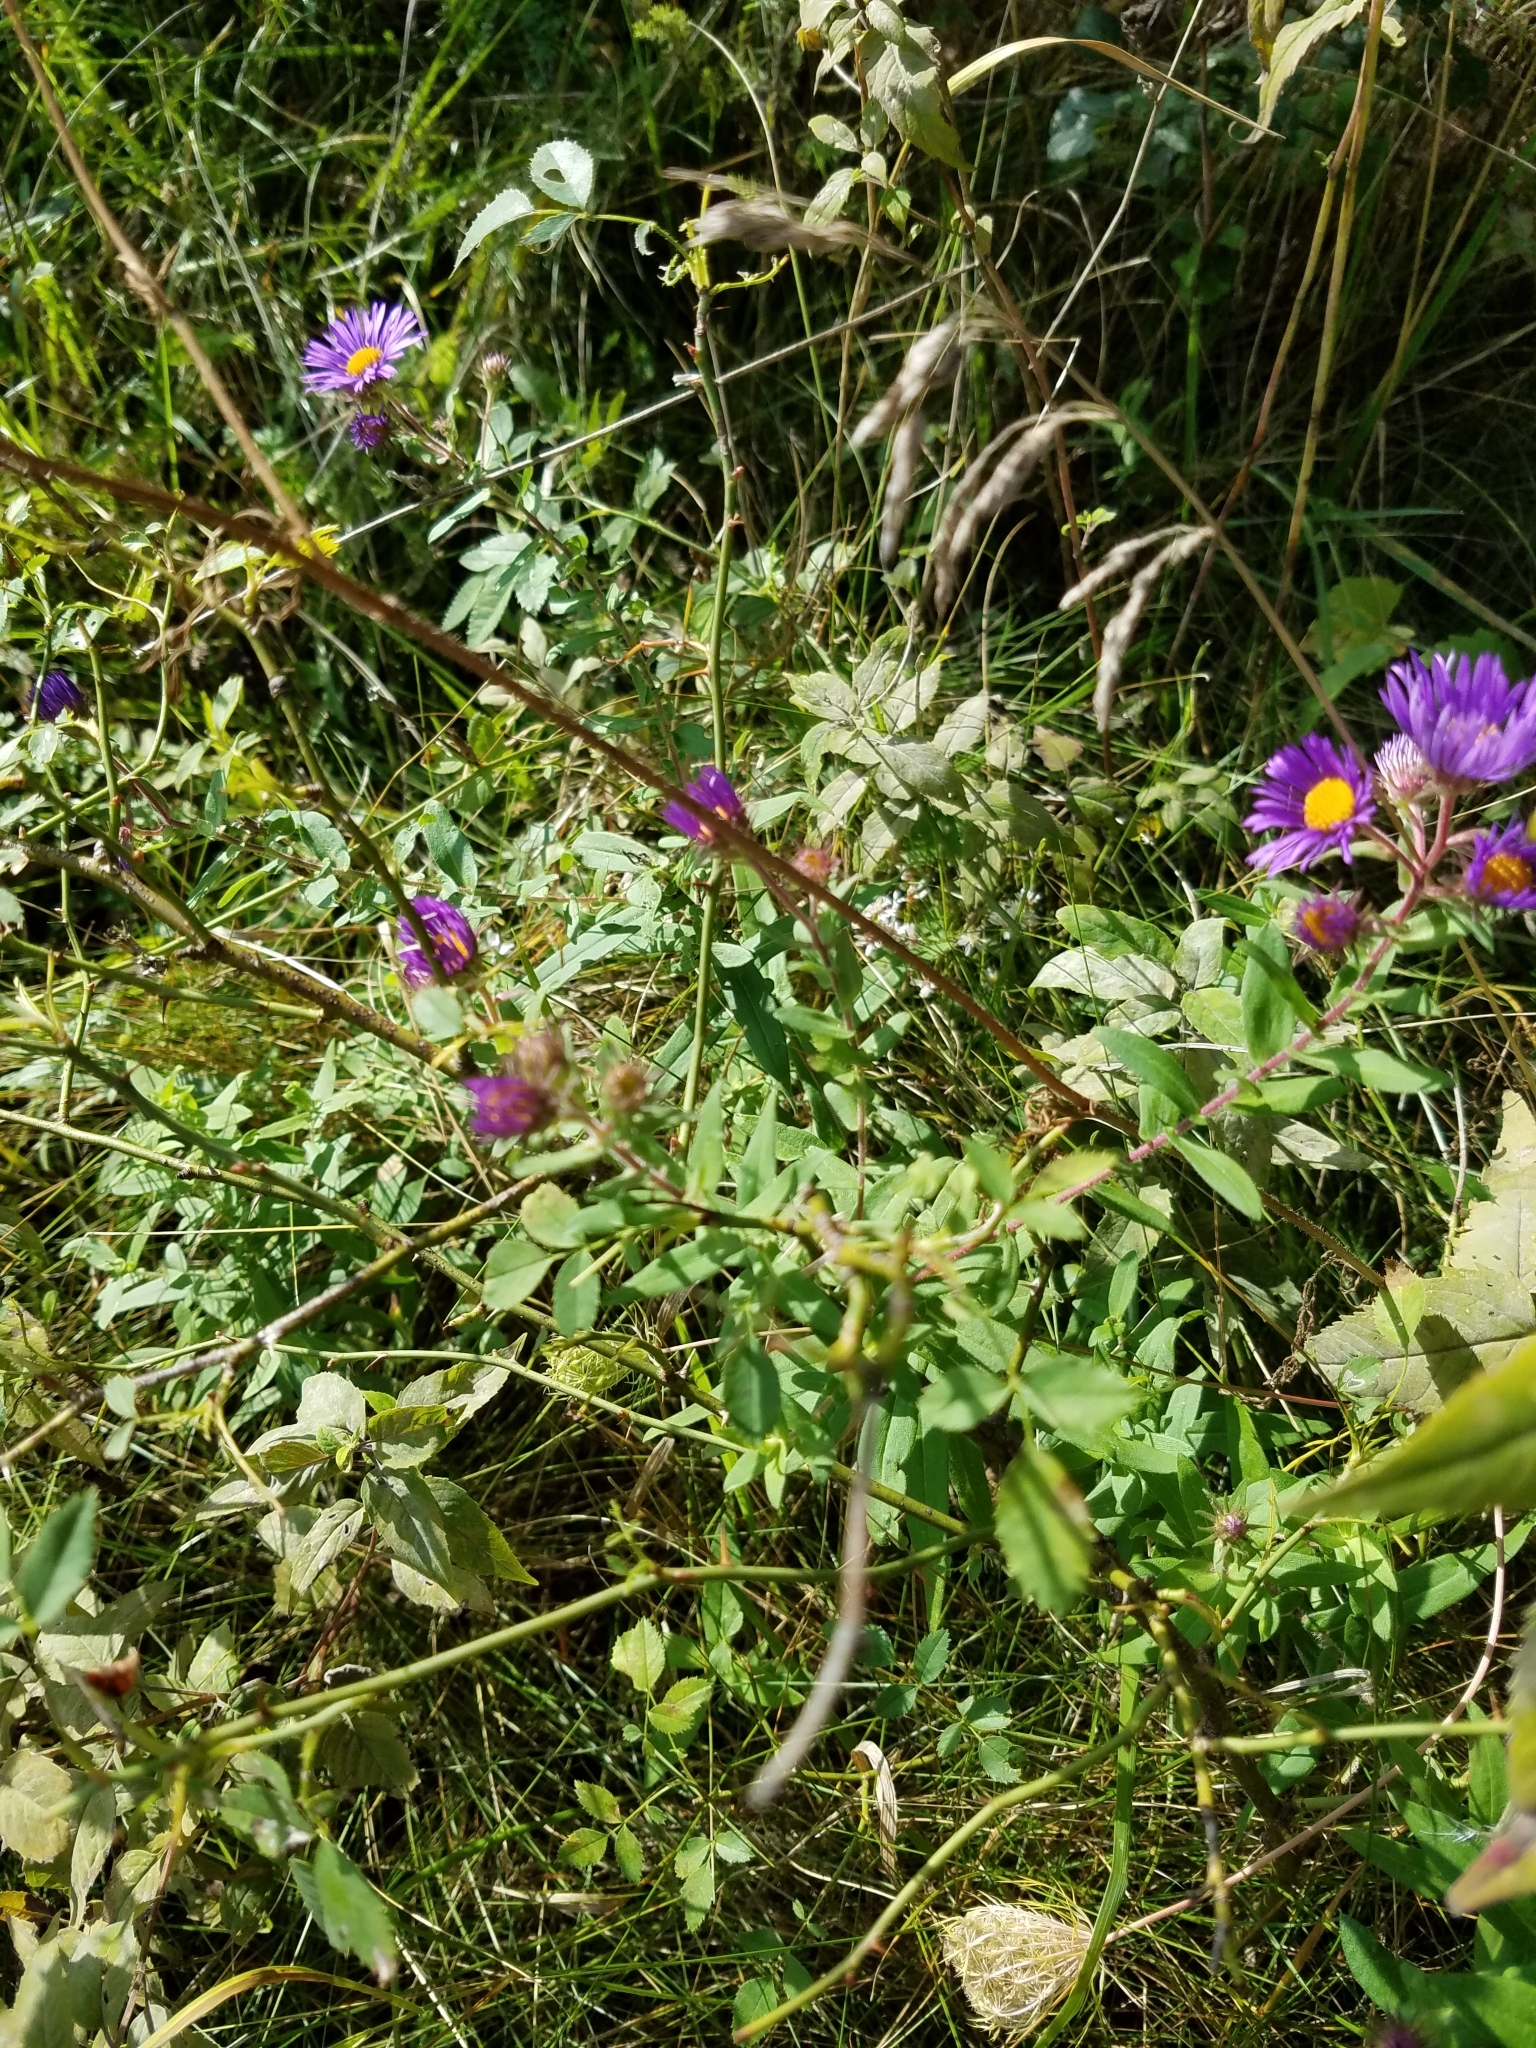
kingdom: Plantae
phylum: Tracheophyta
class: Magnoliopsida
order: Asterales
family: Asteraceae
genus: Symphyotrichum
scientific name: Symphyotrichum novae-angliae
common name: Michaelmas daisy
